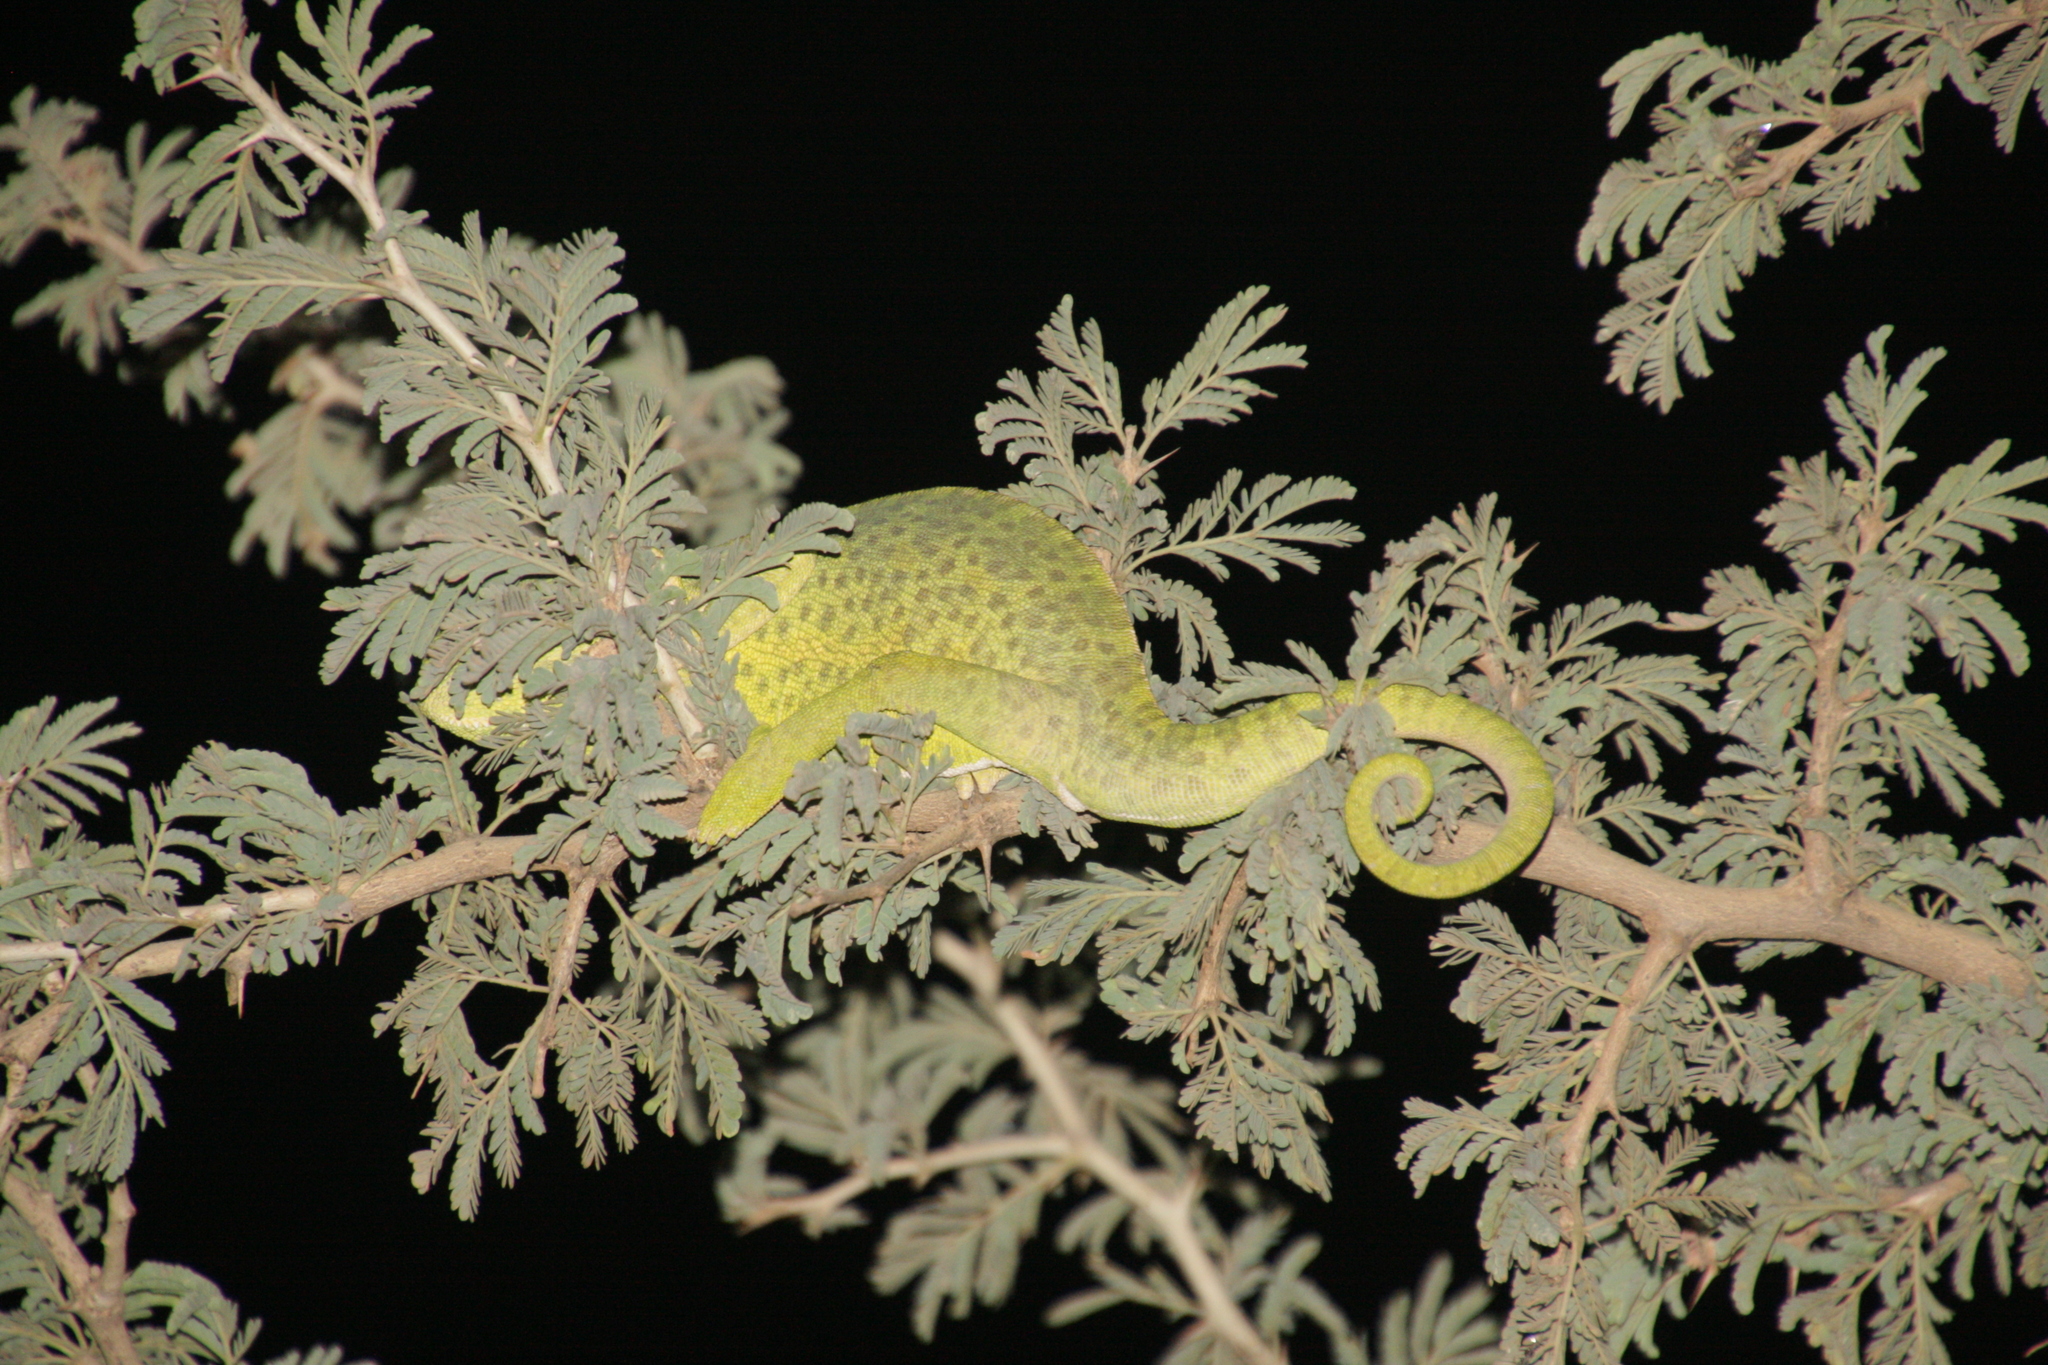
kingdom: Animalia
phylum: Chordata
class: Squamata
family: Chamaeleonidae
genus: Chamaeleo
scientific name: Chamaeleo africanus
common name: African chameleon
